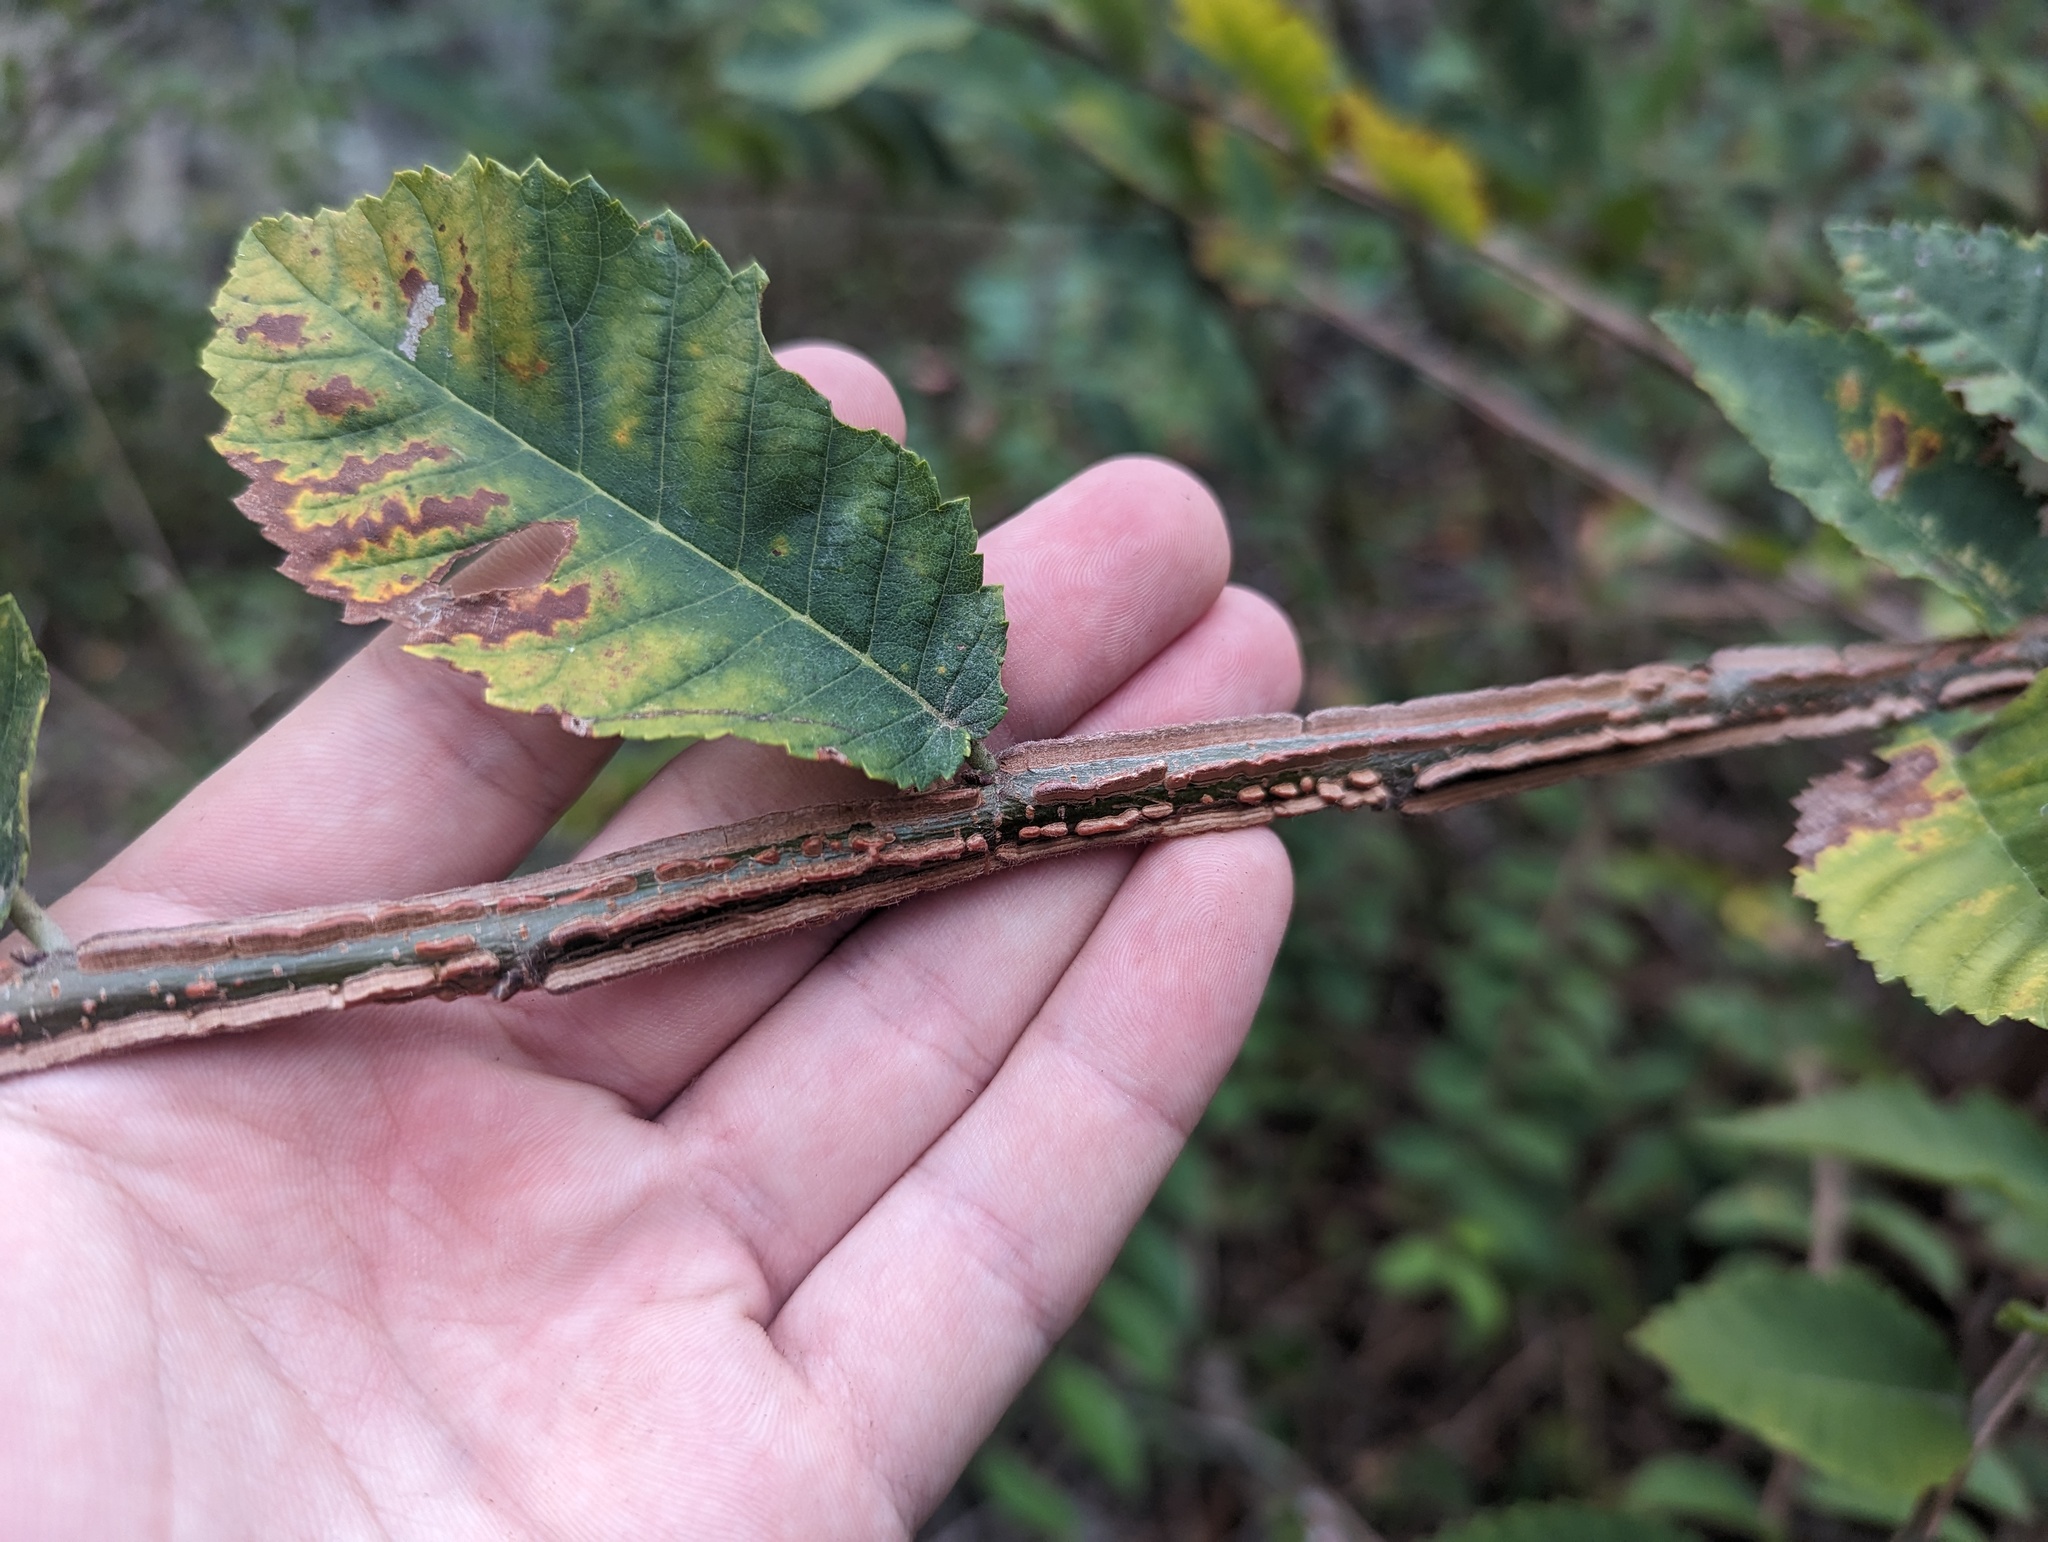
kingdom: Plantae
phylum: Tracheophyta
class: Magnoliopsida
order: Rosales
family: Ulmaceae
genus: Ulmus
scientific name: Ulmus alata
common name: Winged elm
